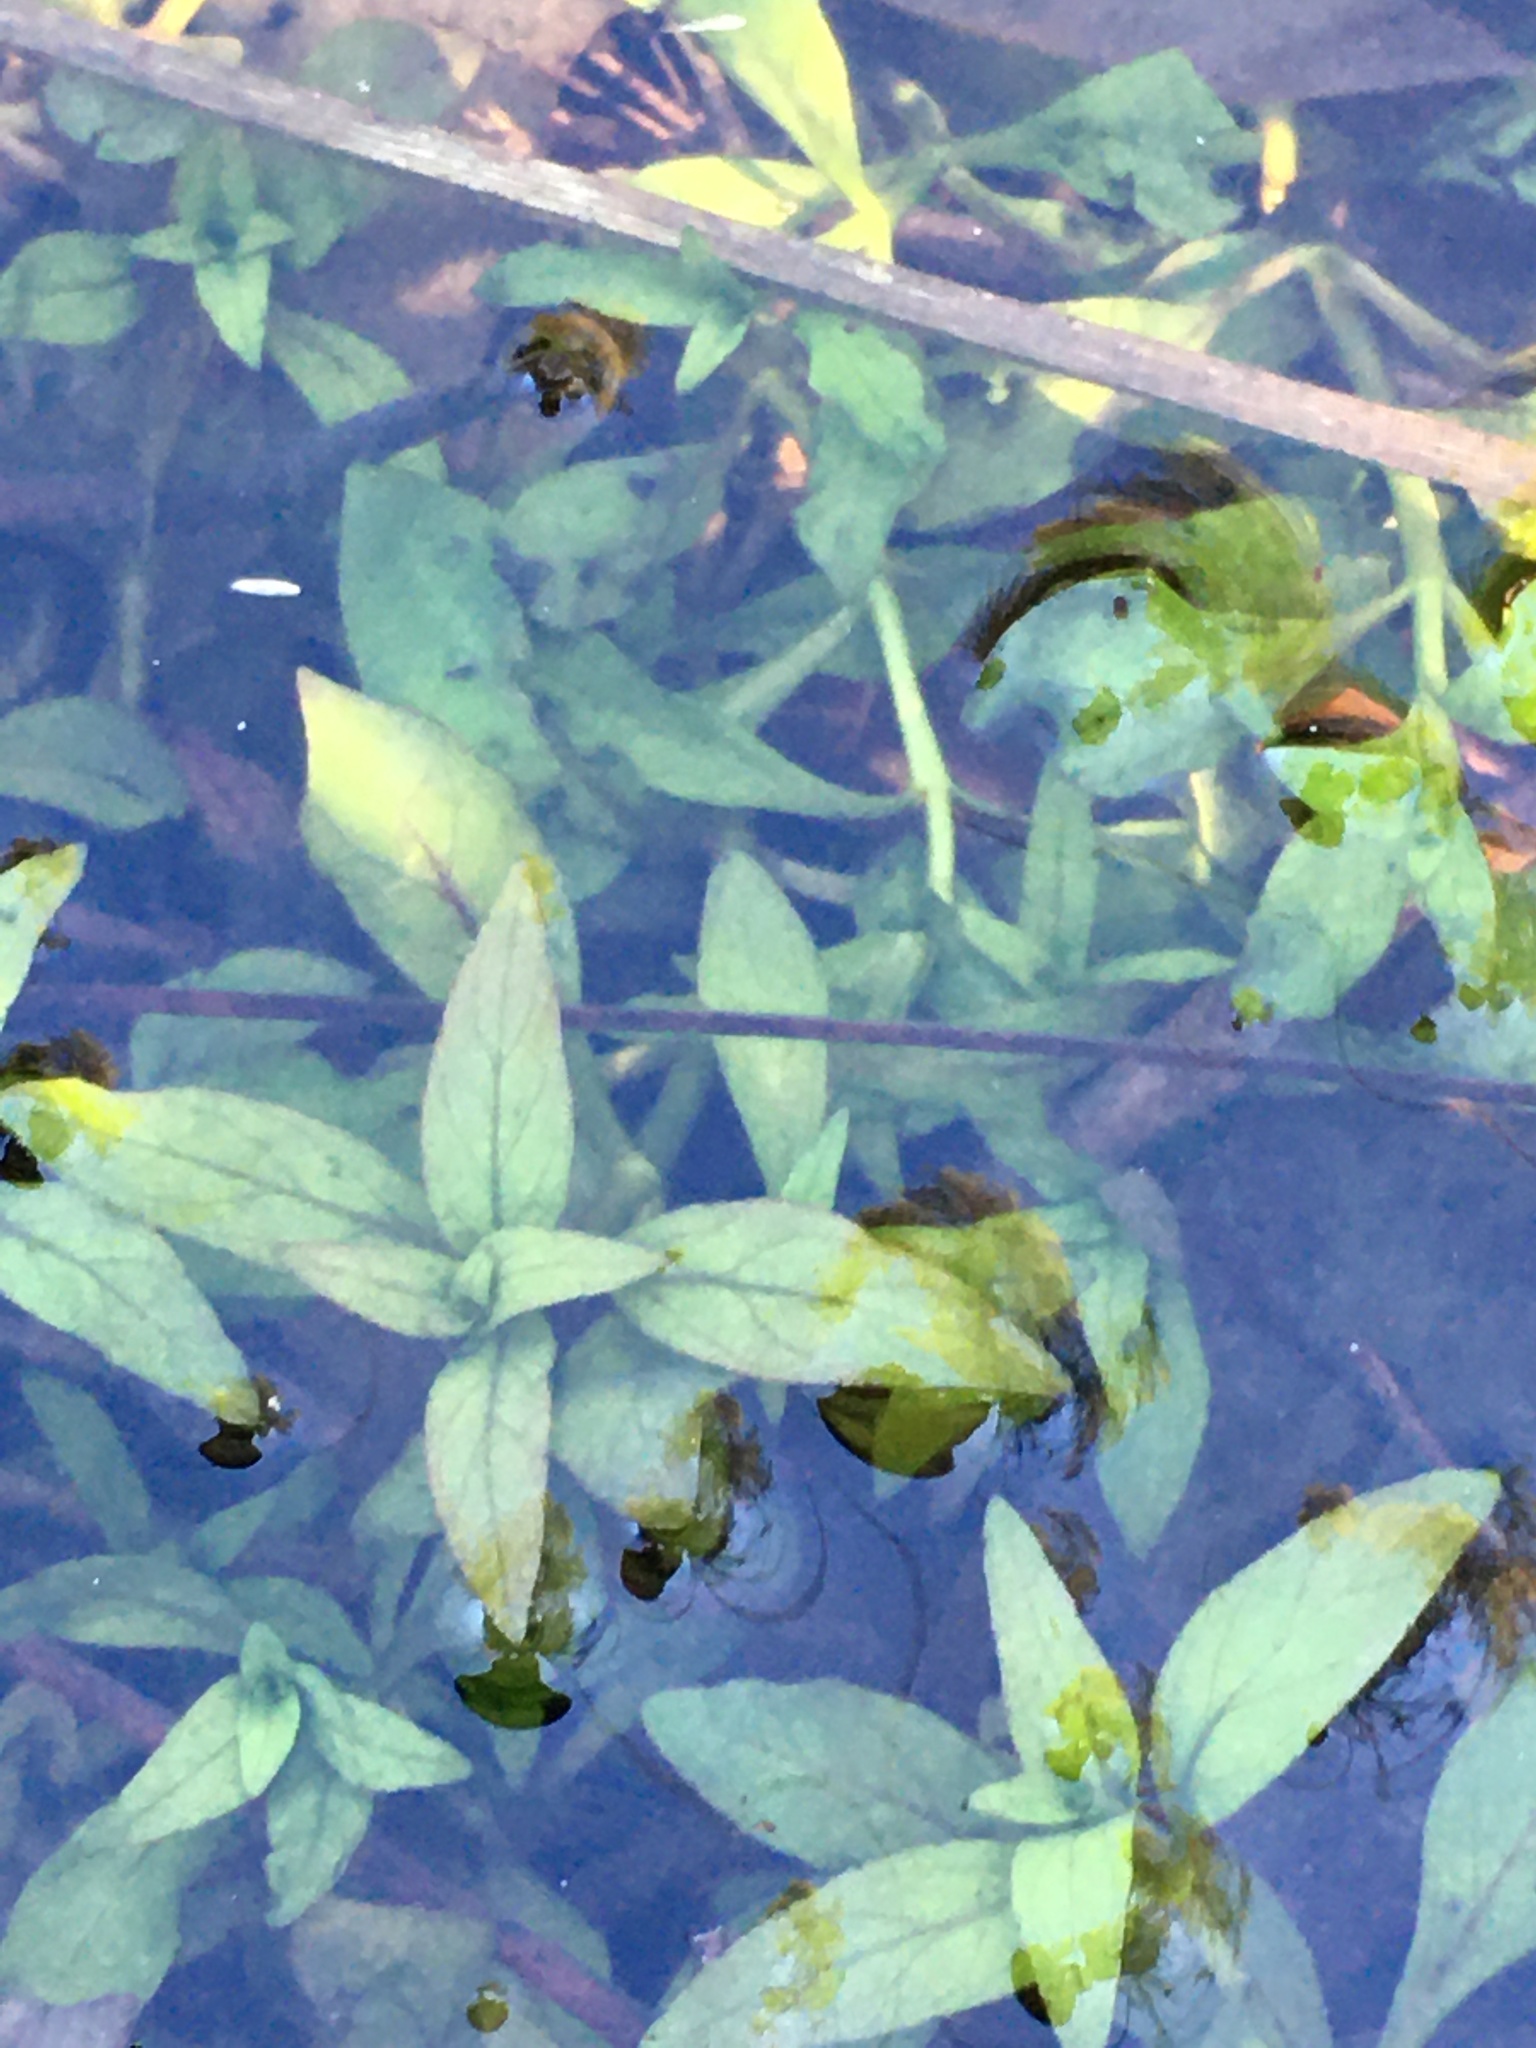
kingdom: Plantae
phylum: Tracheophyta
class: Magnoliopsida
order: Myrtales
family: Onagraceae
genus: Ludwigia
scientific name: Ludwigia palustris
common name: Hampshire-purslane
